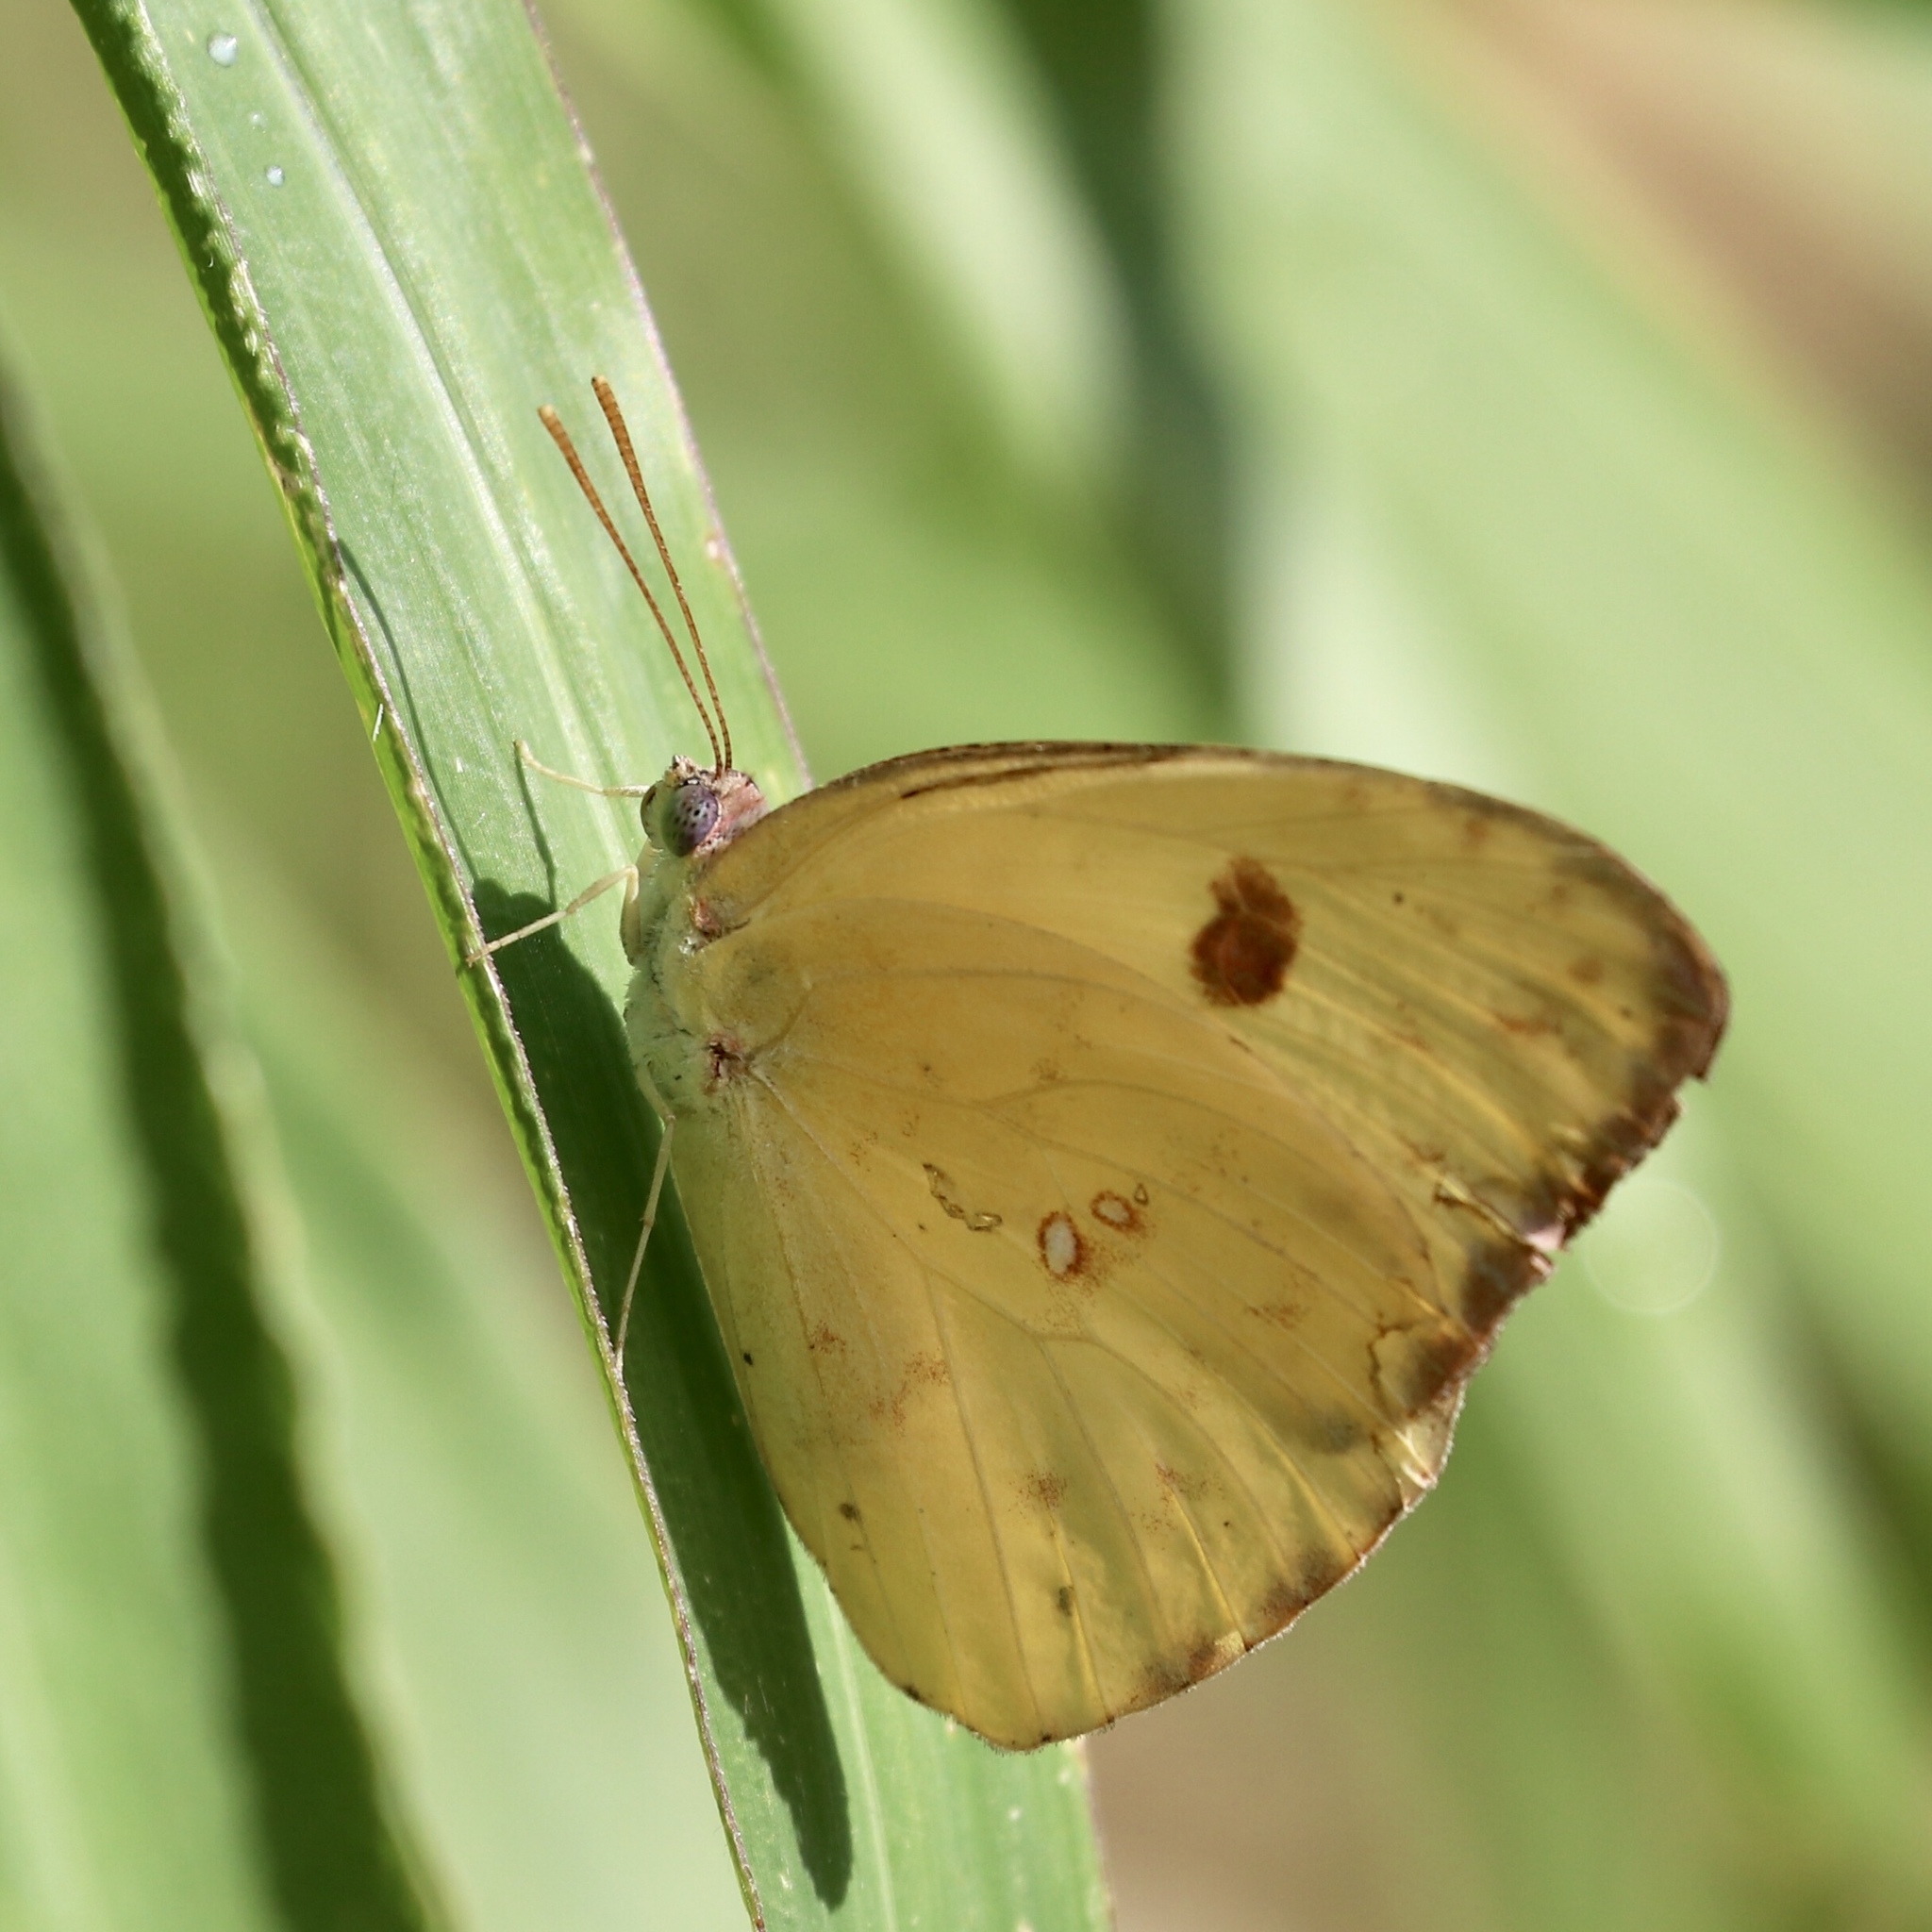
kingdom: Animalia
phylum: Arthropoda
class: Insecta
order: Lepidoptera
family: Pieridae
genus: Phoebis
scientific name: Phoebis sennae
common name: Cloudless sulphur
